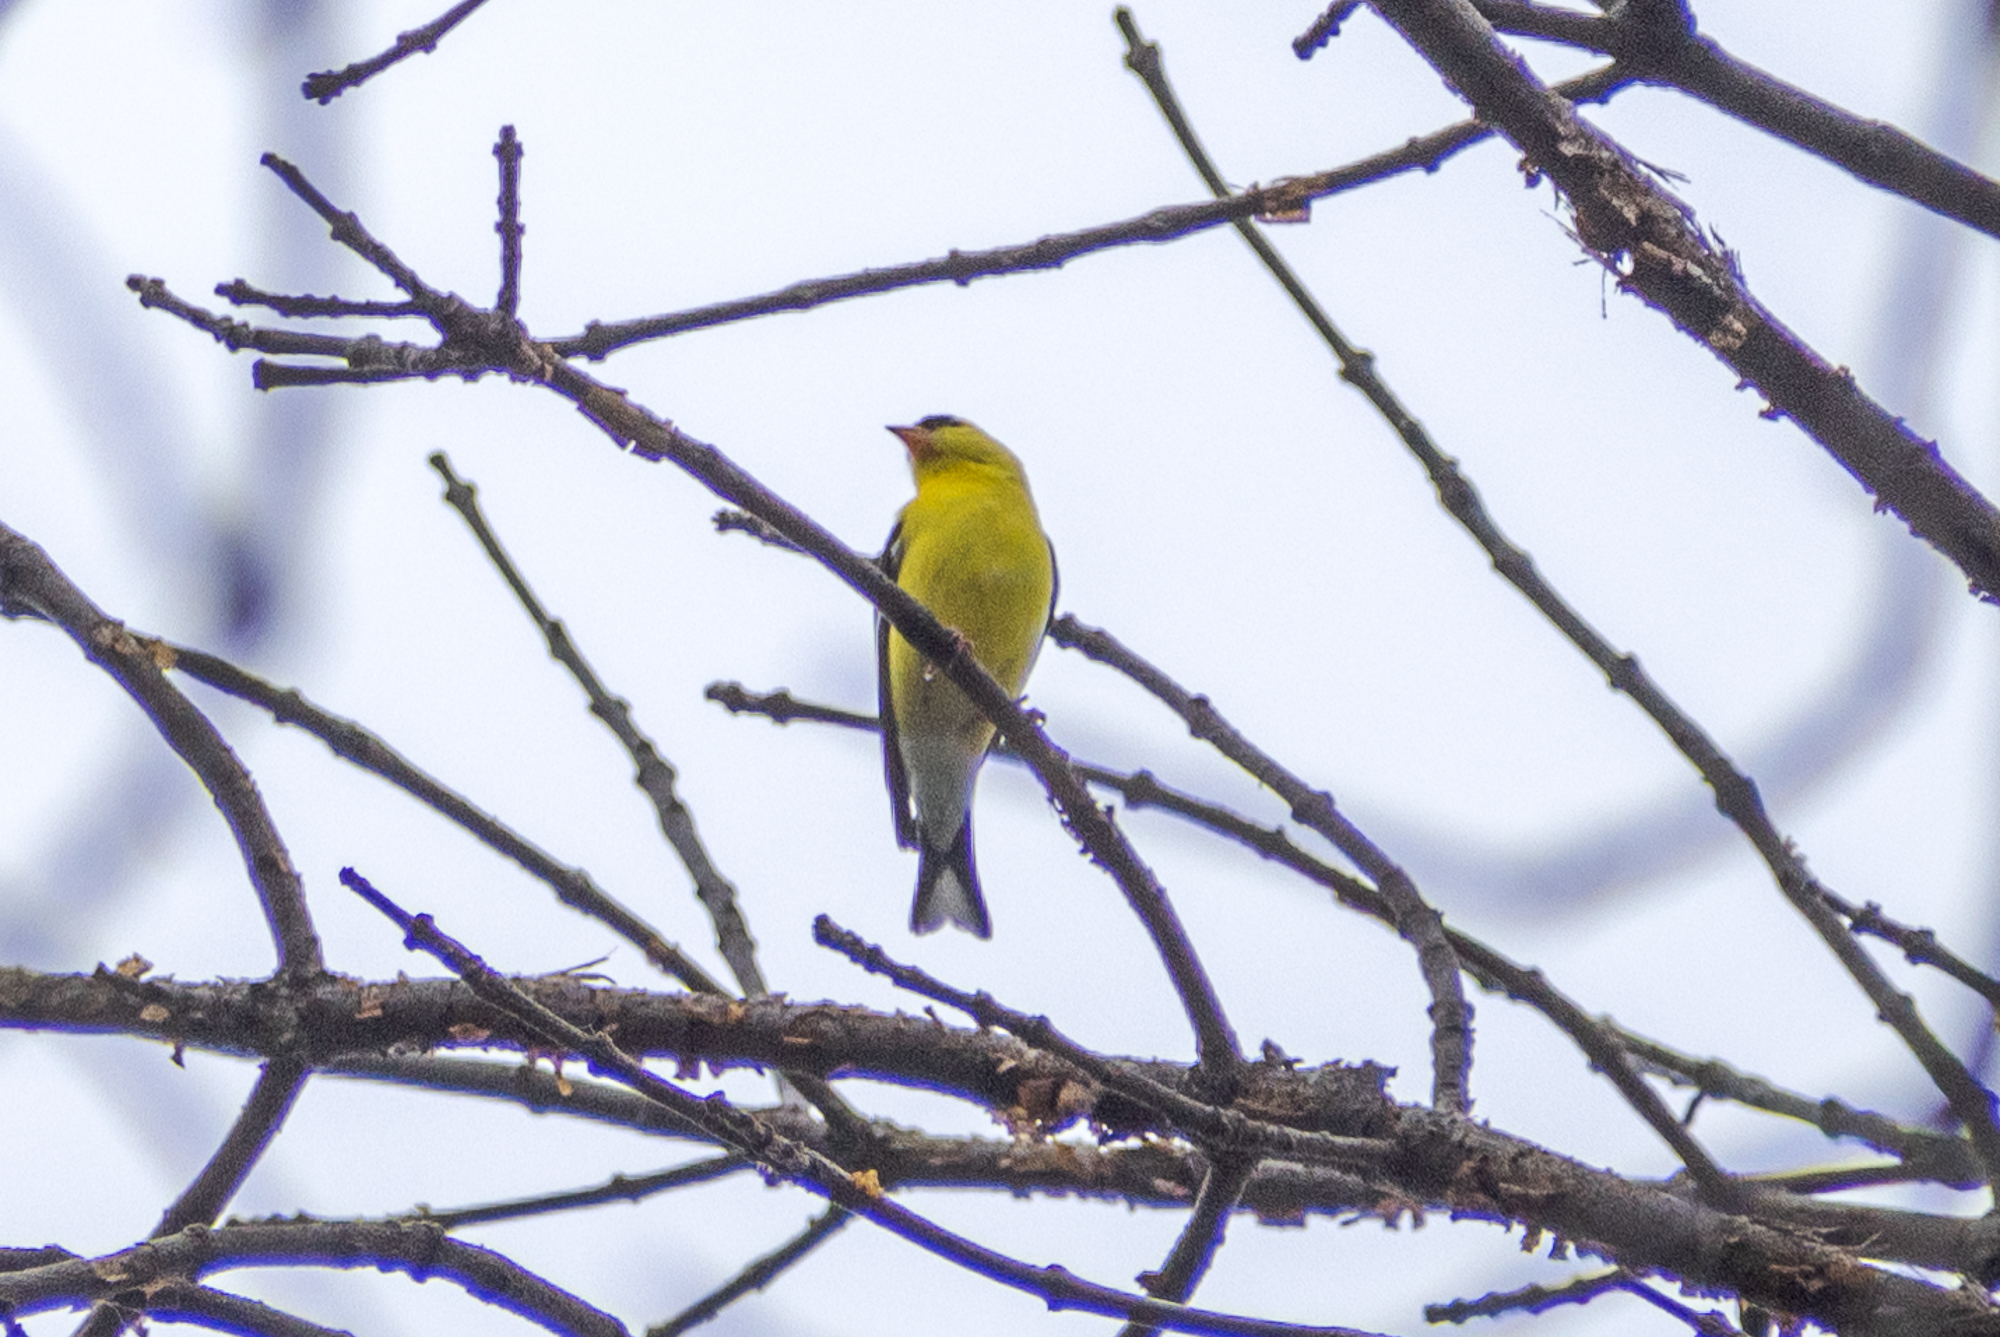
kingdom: Animalia
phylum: Chordata
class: Aves
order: Passeriformes
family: Fringillidae
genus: Spinus
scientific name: Spinus tristis
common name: American goldfinch
